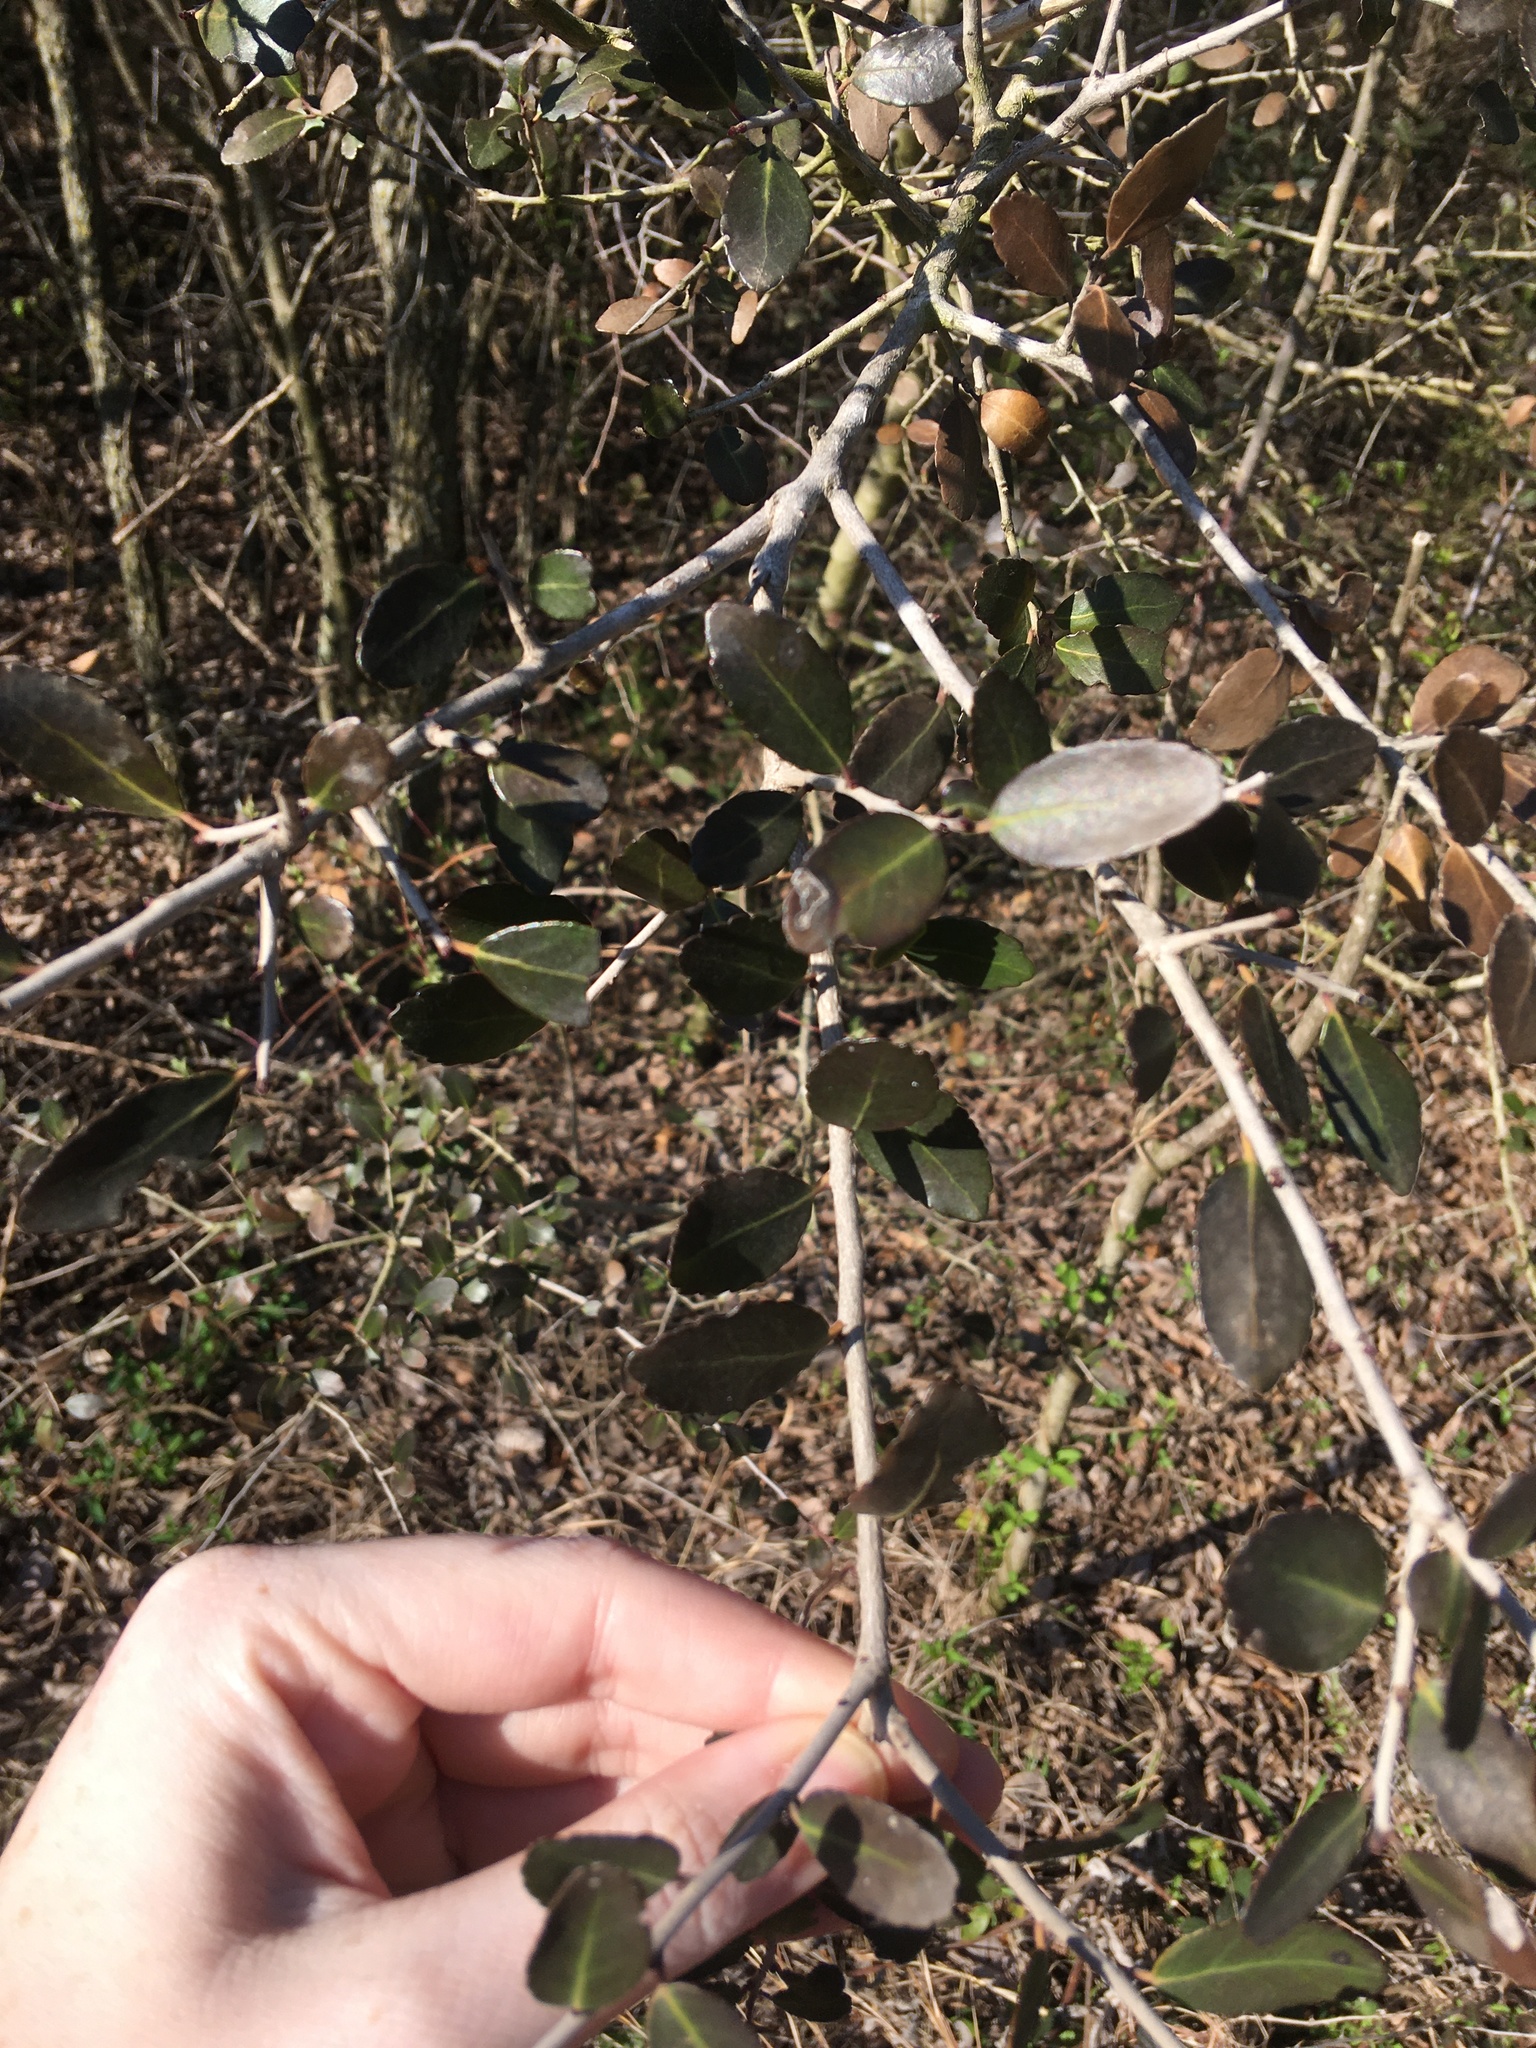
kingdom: Plantae
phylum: Tracheophyta
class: Magnoliopsida
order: Aquifoliales
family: Aquifoliaceae
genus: Ilex
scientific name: Ilex vomitoria
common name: Yaupon holly
